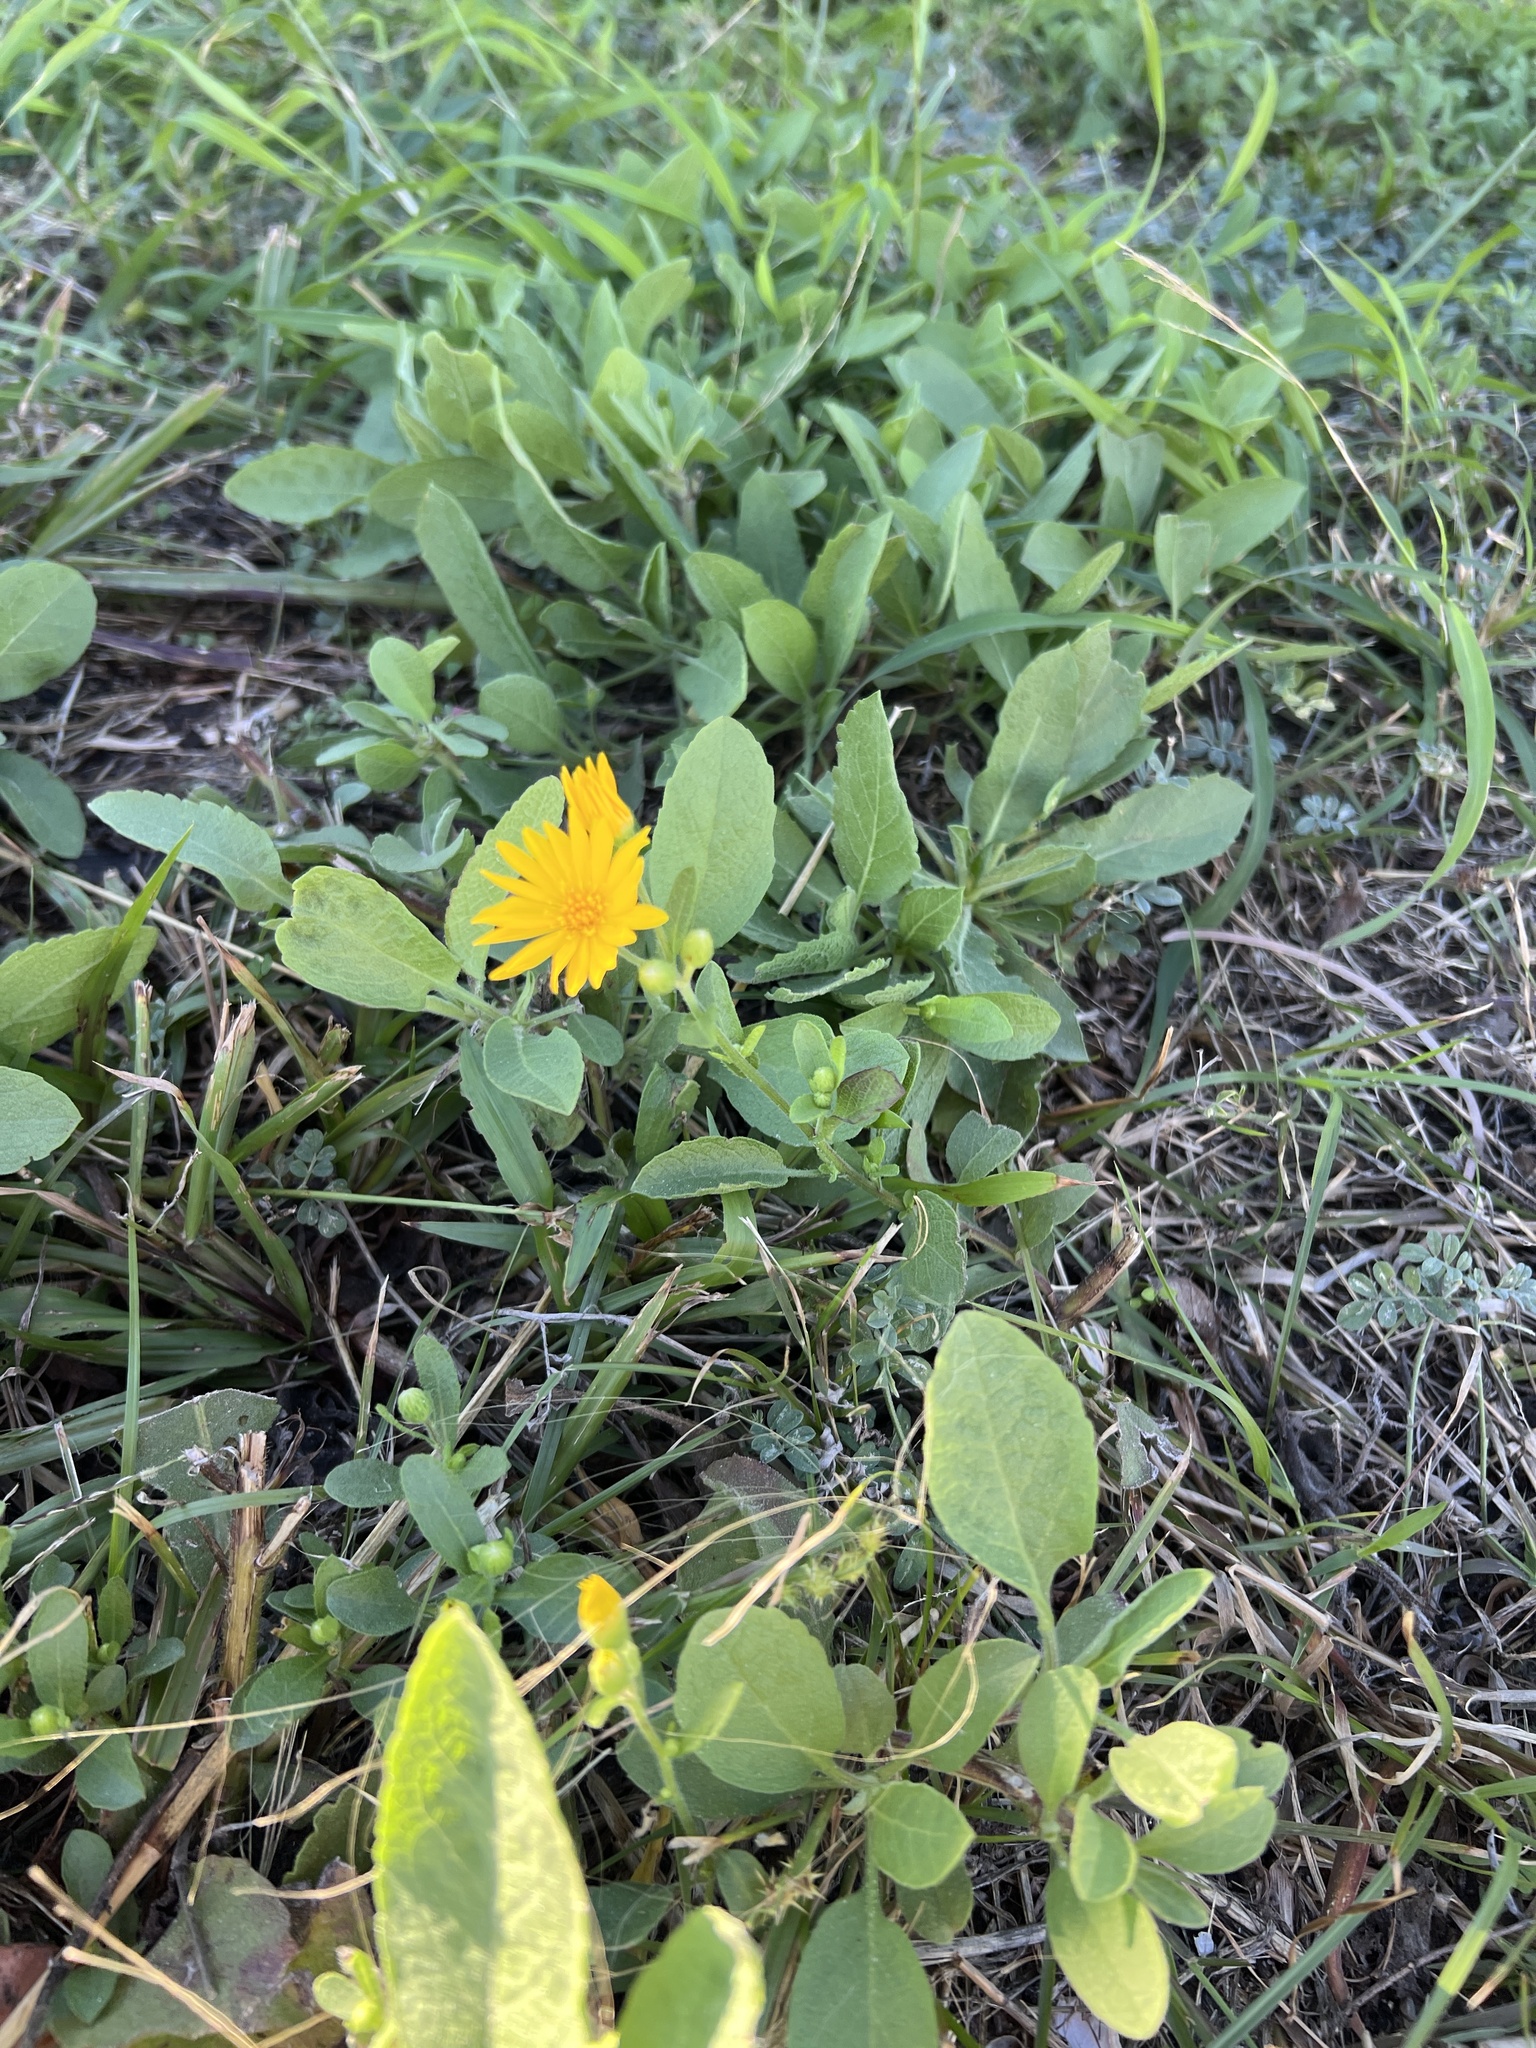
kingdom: Plantae
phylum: Tracheophyta
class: Magnoliopsida
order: Asterales
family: Asteraceae
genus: Heterotheca
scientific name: Heterotheca subaxillaris
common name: Camphorweed
